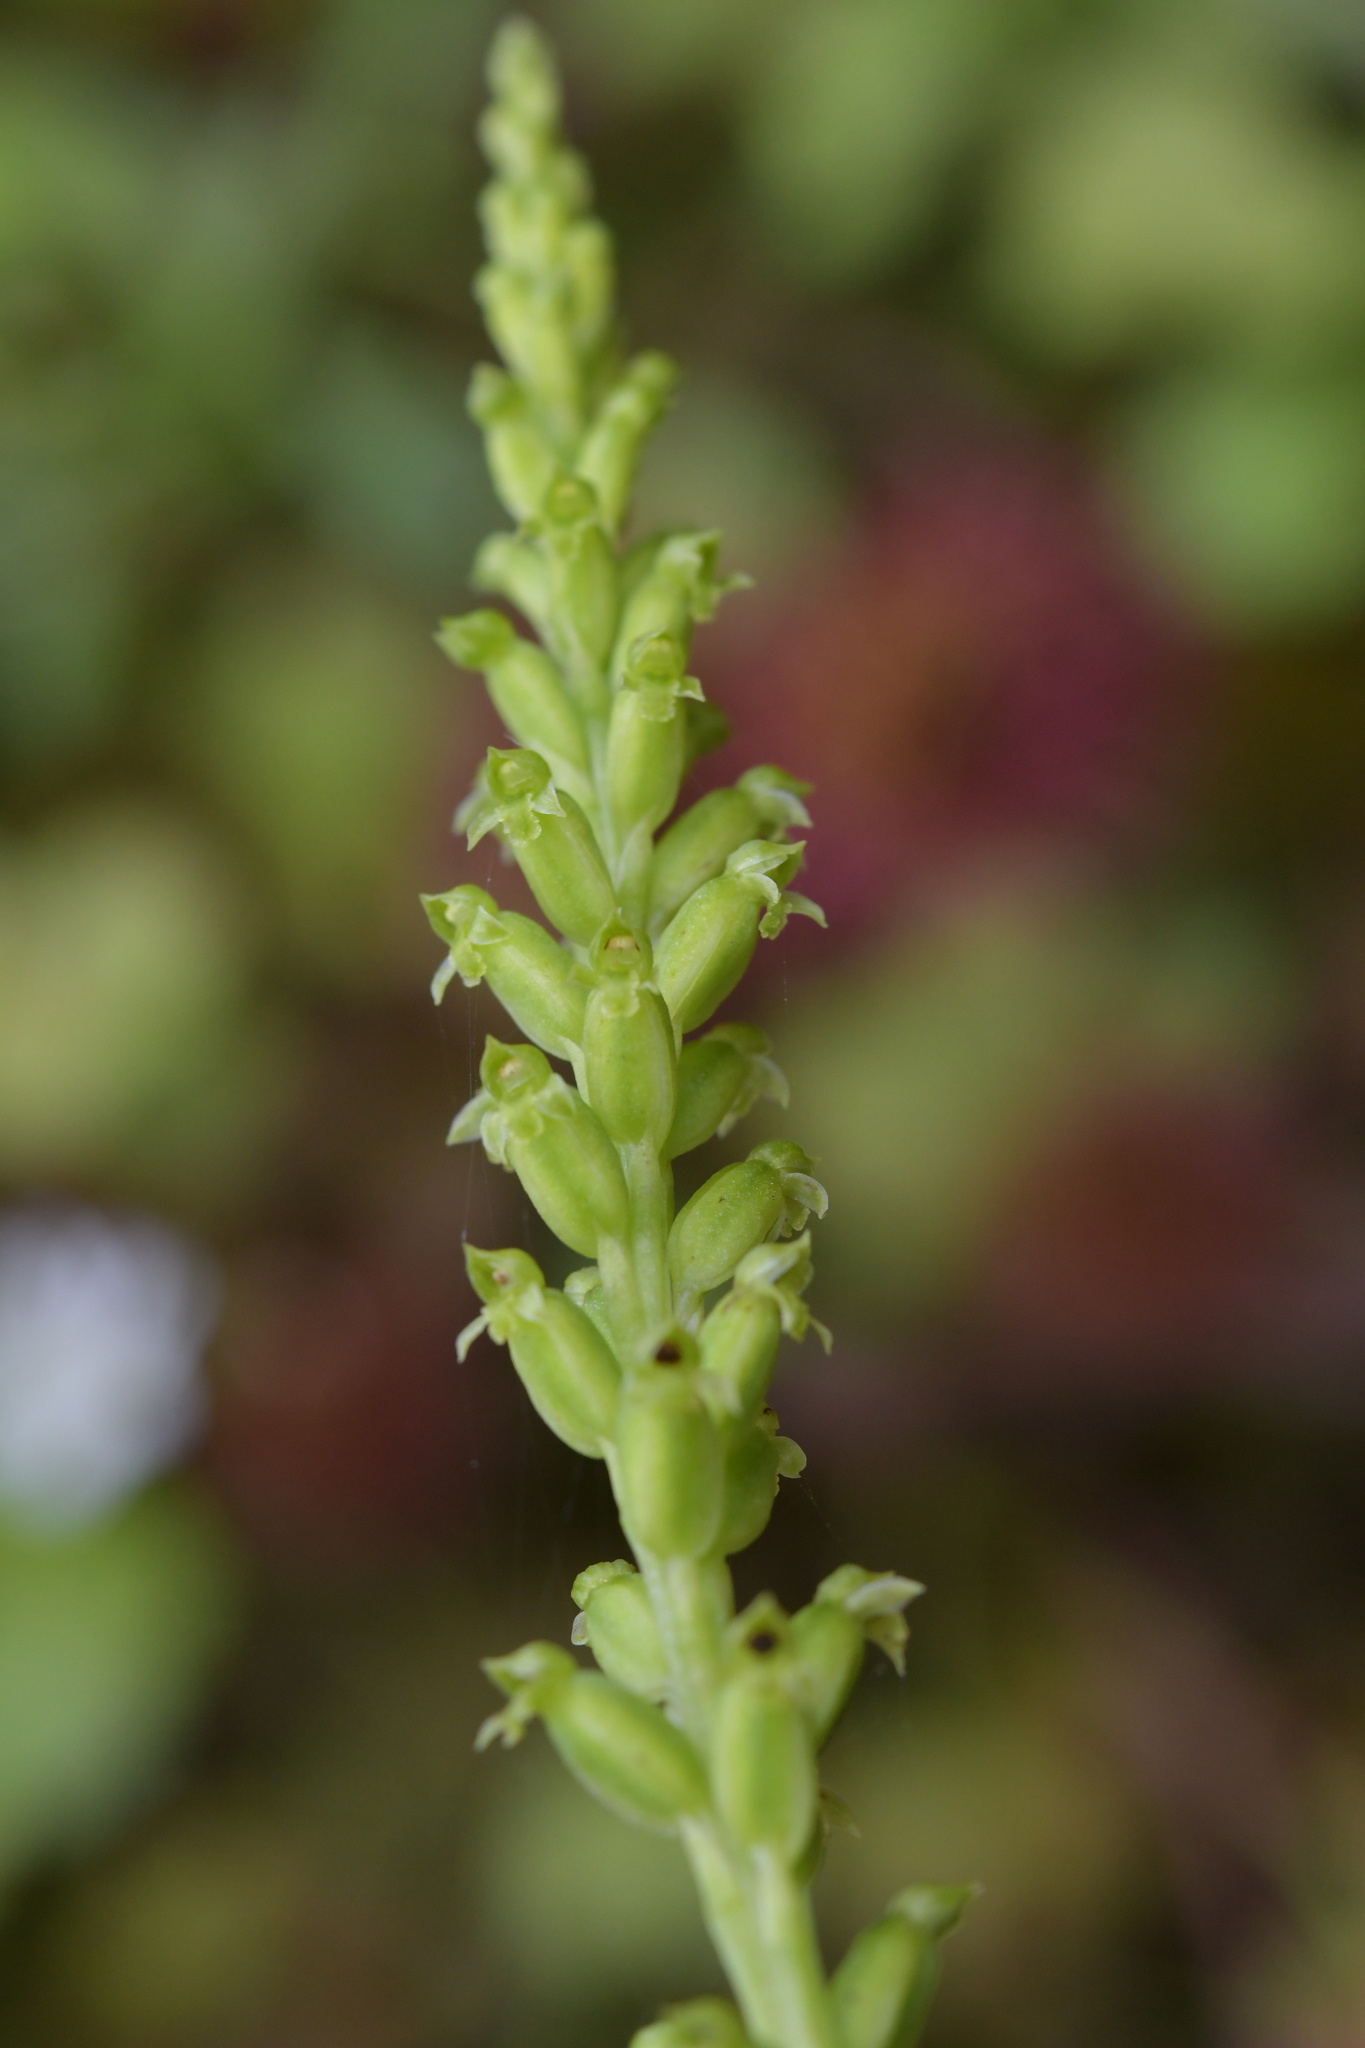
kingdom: Plantae
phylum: Tracheophyta
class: Liliopsida
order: Asparagales
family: Orchidaceae
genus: Microtis
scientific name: Microtis unifolia
